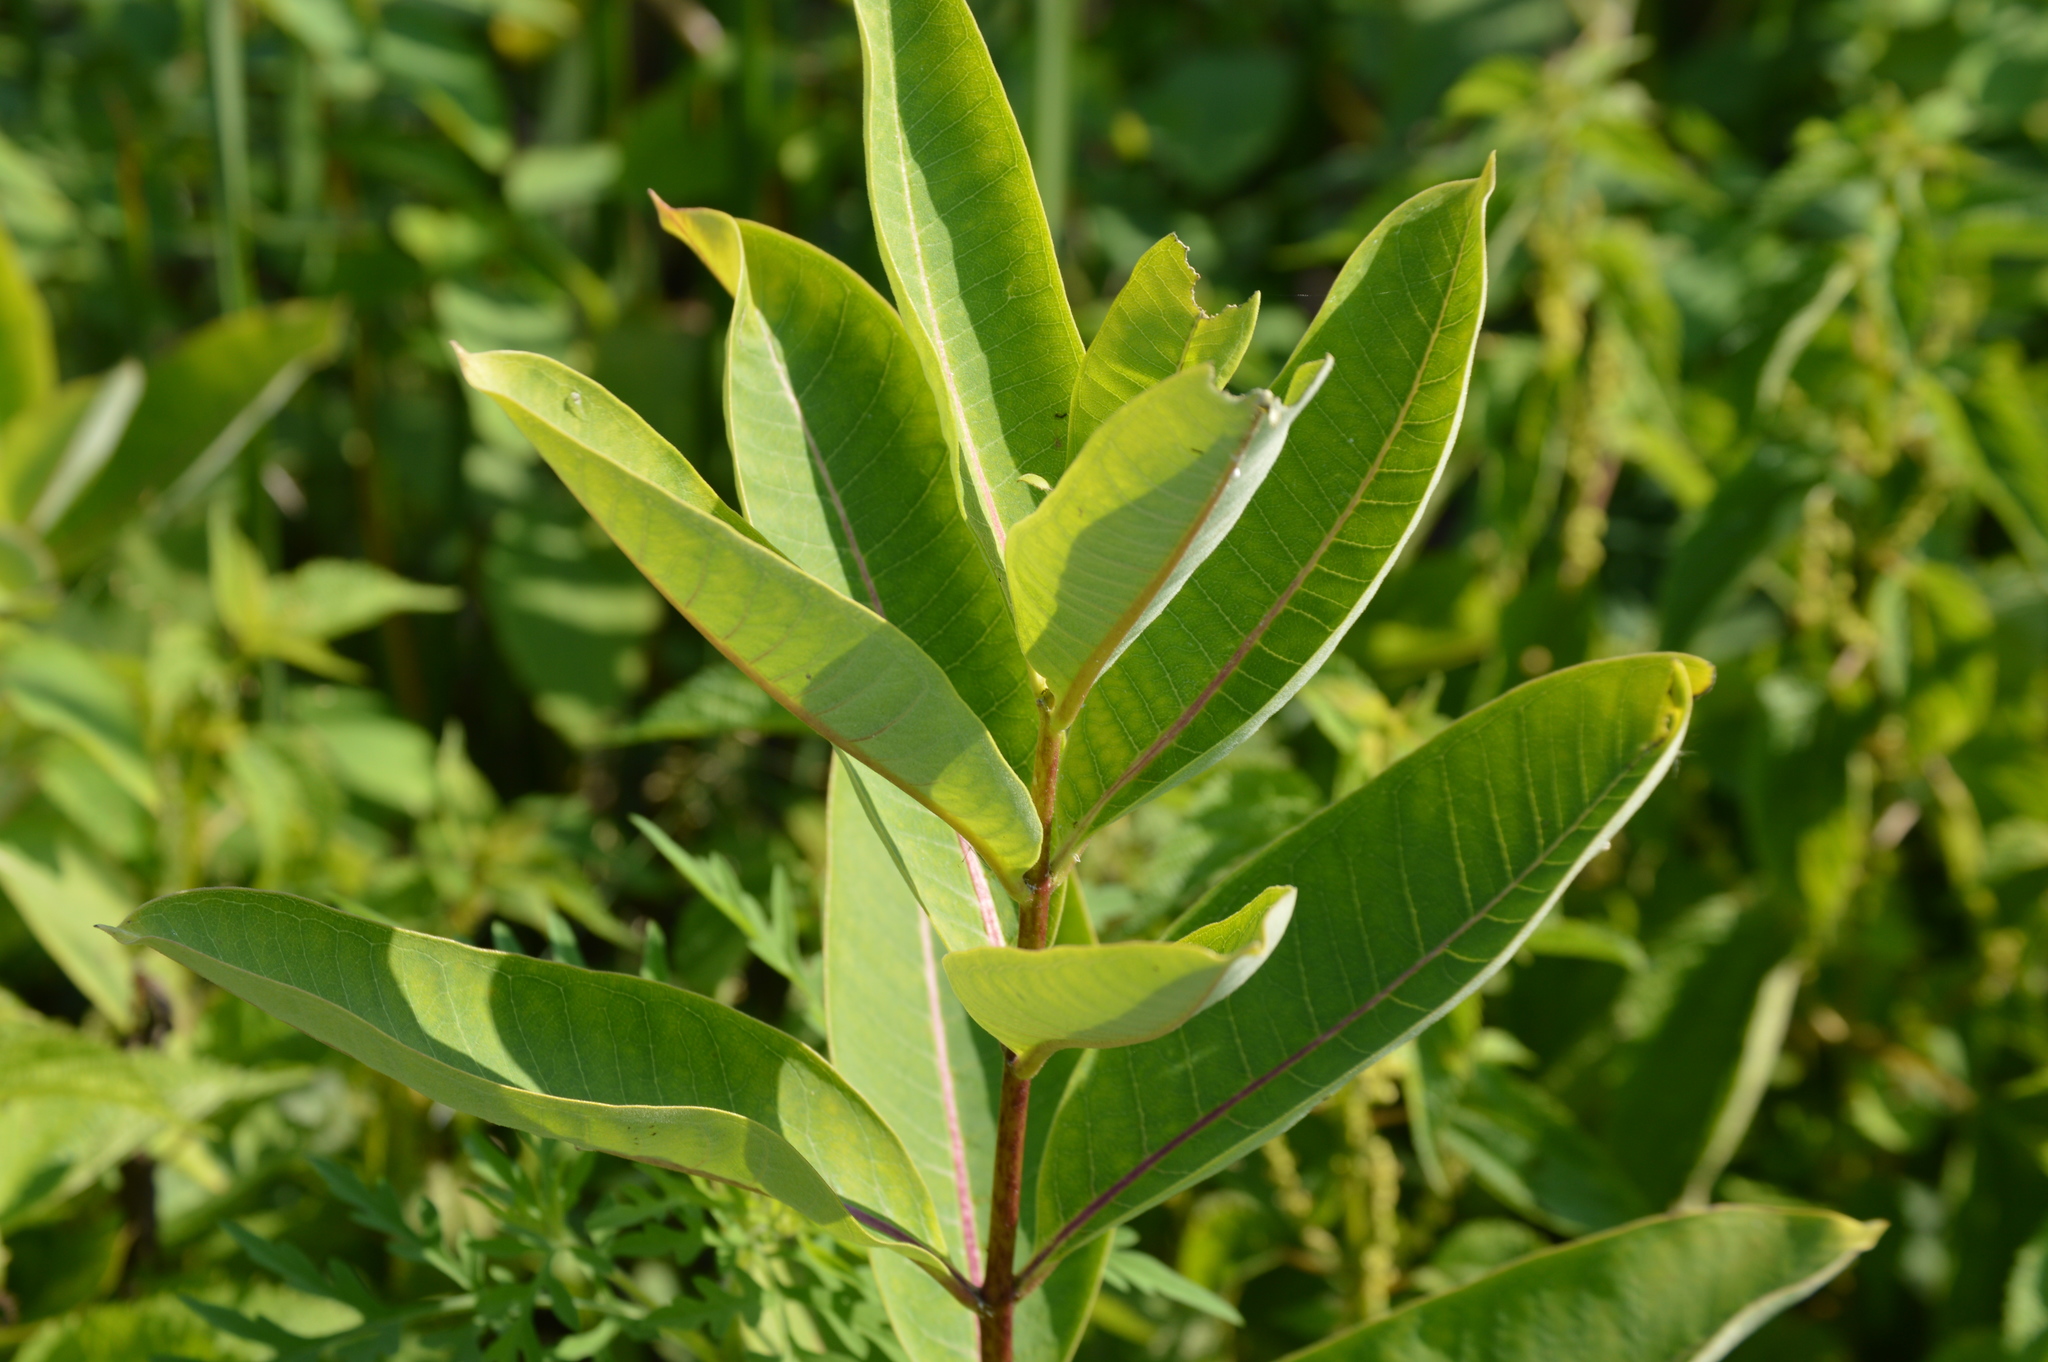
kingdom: Plantae
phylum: Tracheophyta
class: Magnoliopsida
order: Gentianales
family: Apocynaceae
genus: Asclepias
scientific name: Asclepias syriaca
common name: Common milkweed
